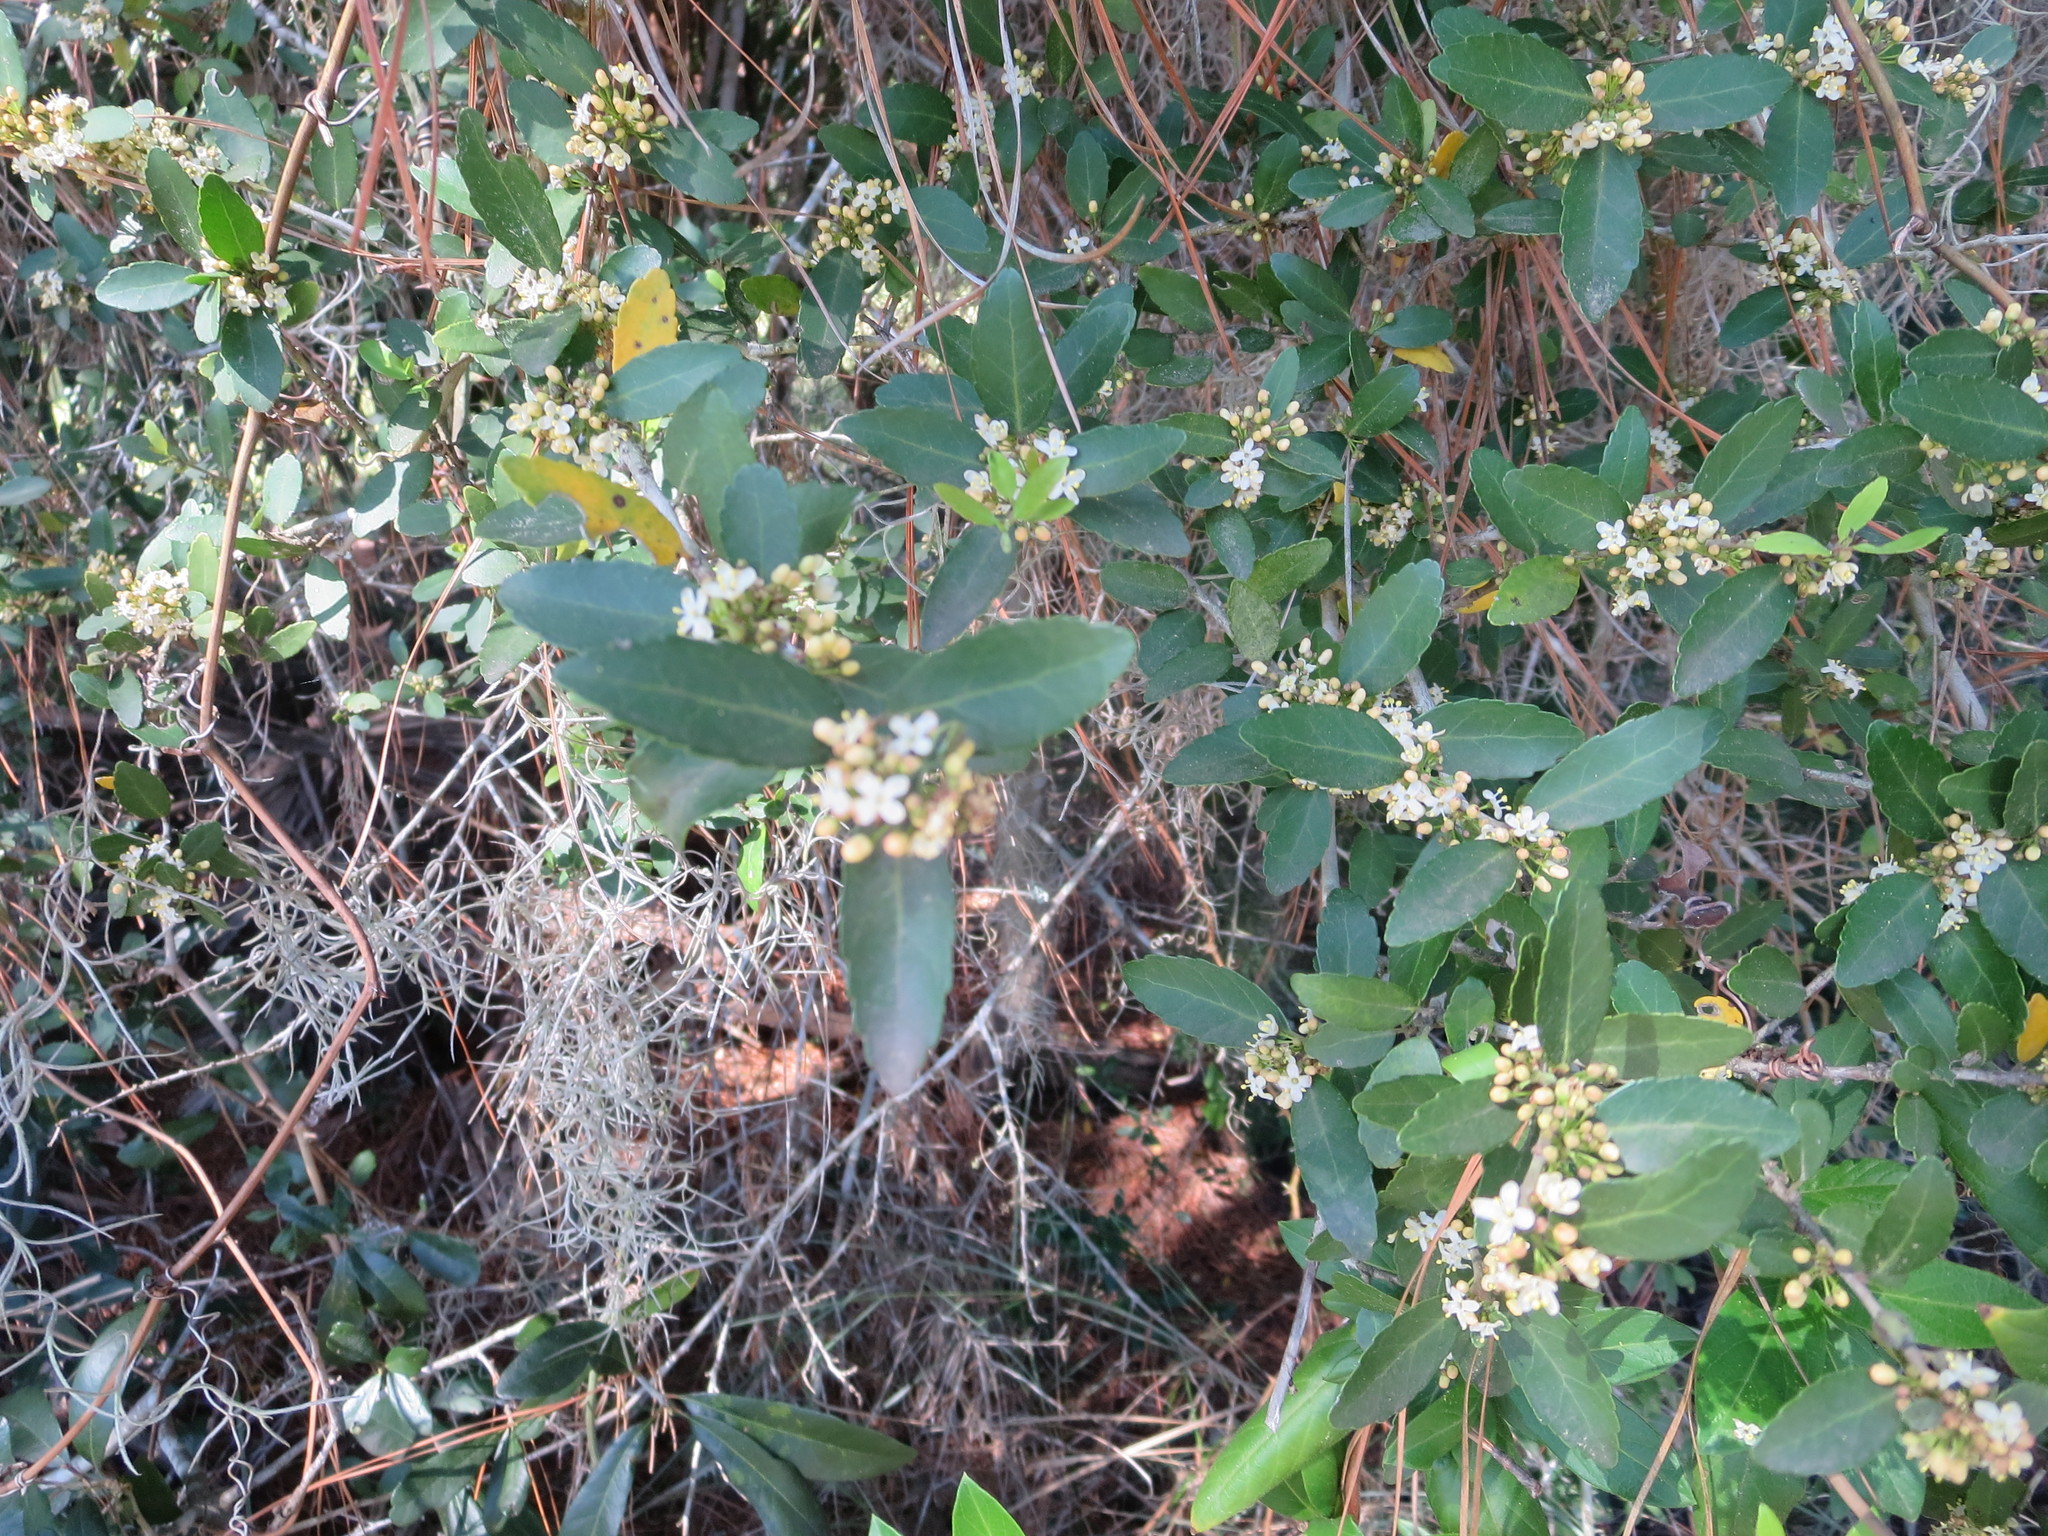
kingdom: Plantae
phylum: Tracheophyta
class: Magnoliopsida
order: Aquifoliales
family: Aquifoliaceae
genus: Ilex
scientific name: Ilex vomitoria
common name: Yaupon holly
